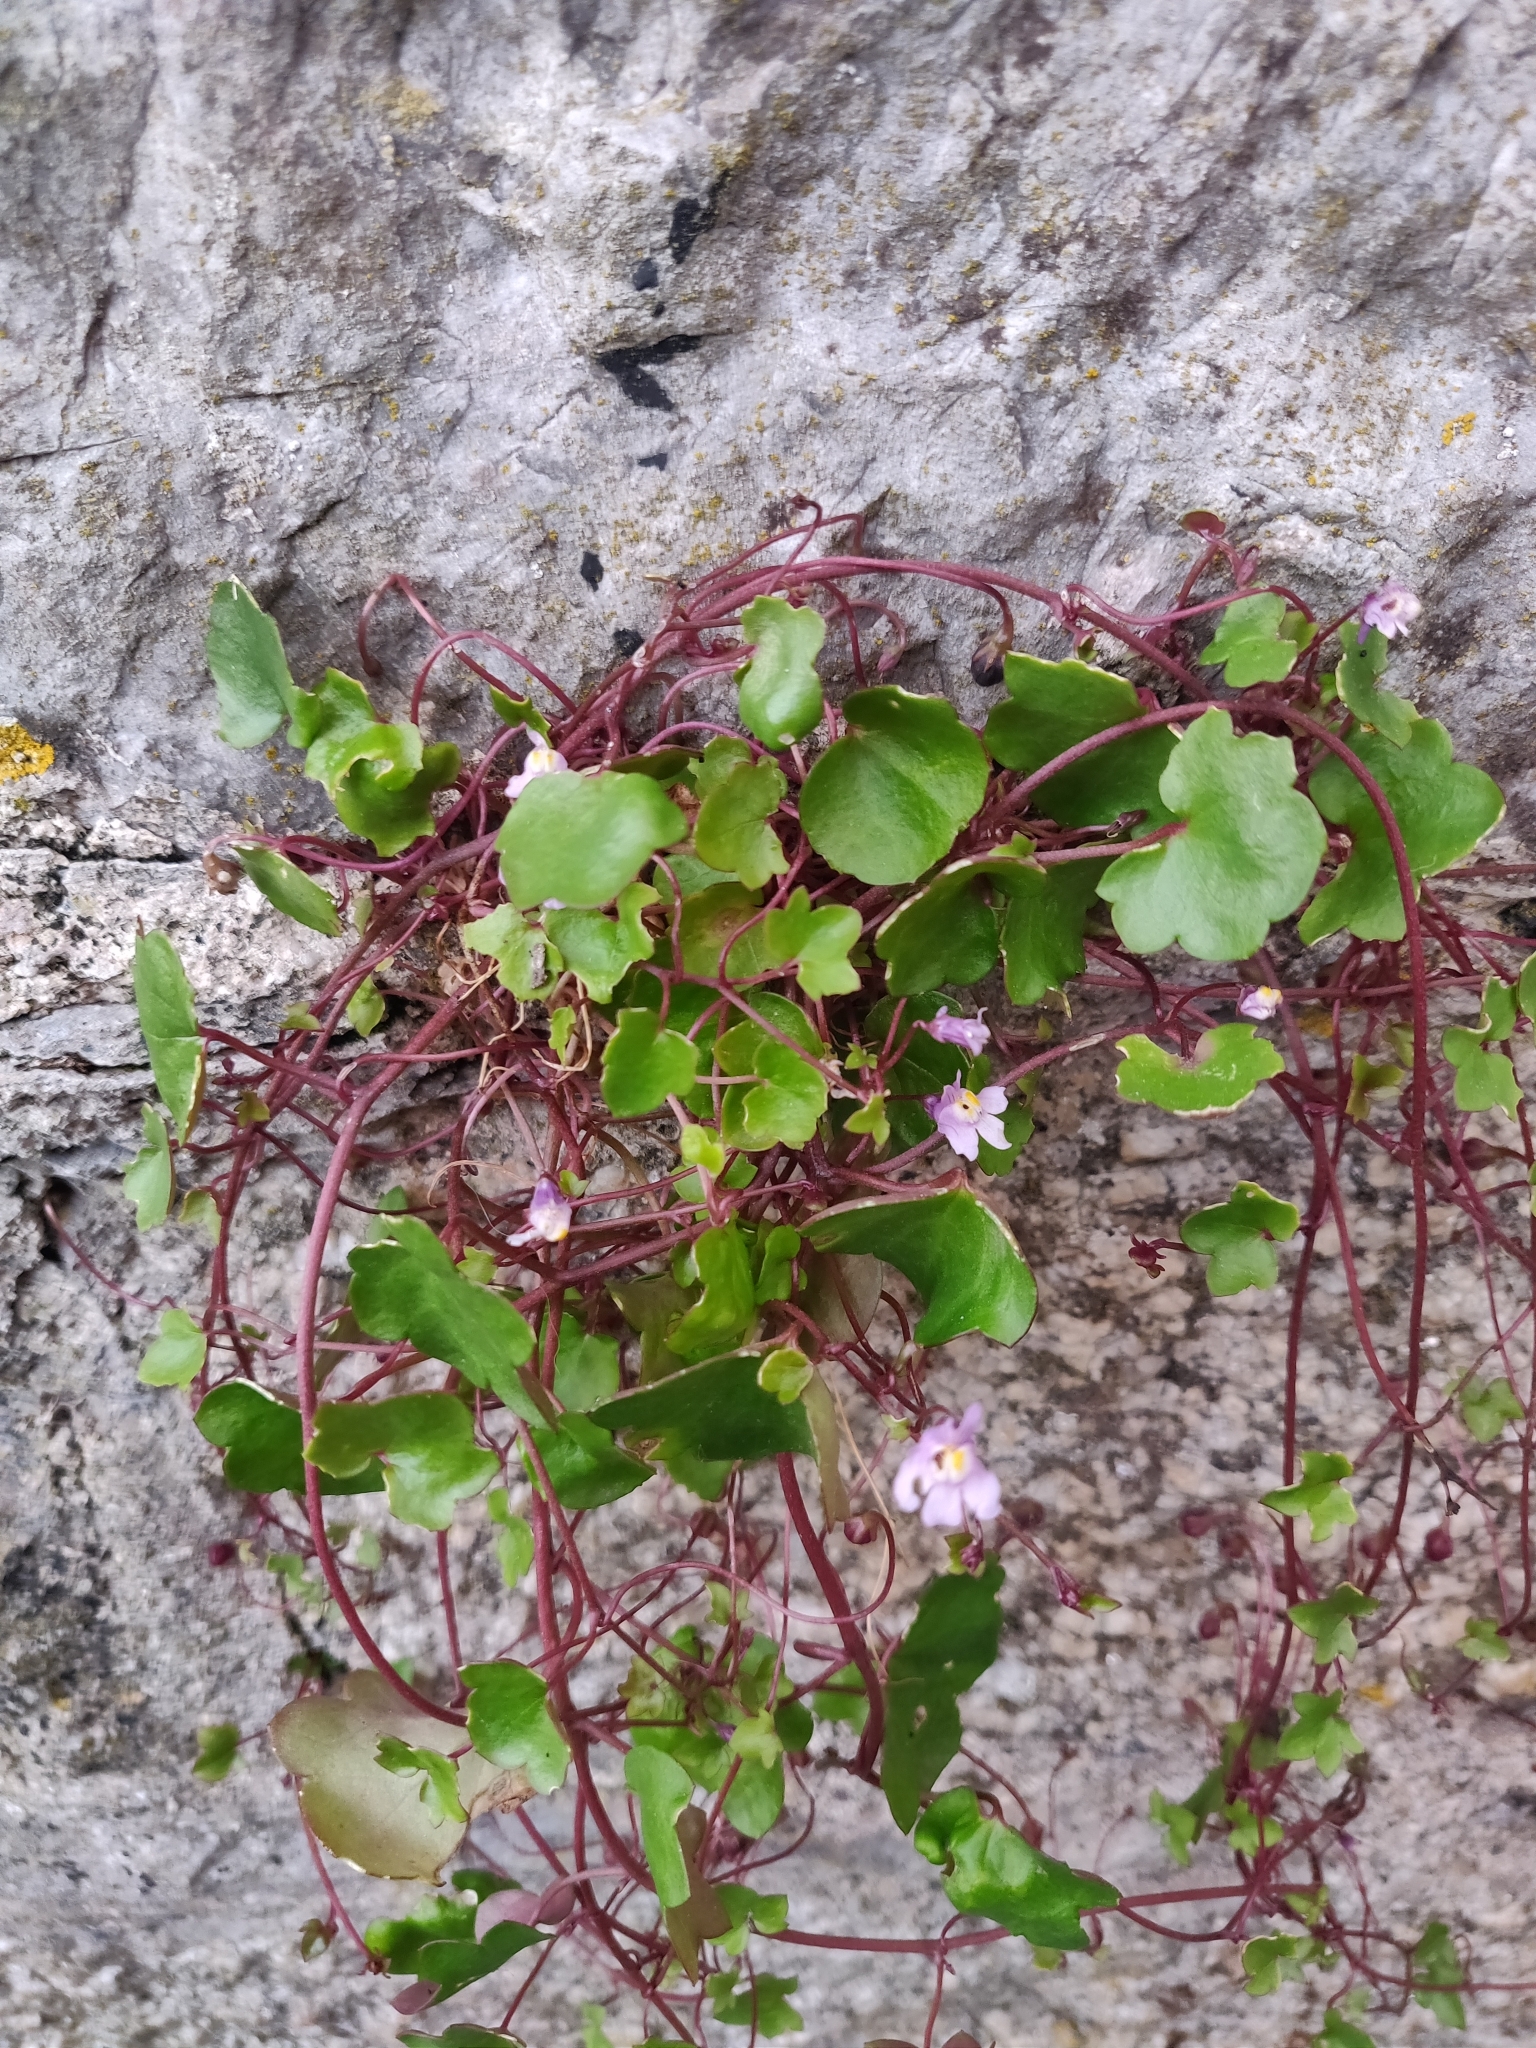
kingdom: Plantae
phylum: Tracheophyta
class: Magnoliopsida
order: Lamiales
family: Plantaginaceae
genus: Cymbalaria
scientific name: Cymbalaria muralis
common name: Ivy-leaved toadflax
